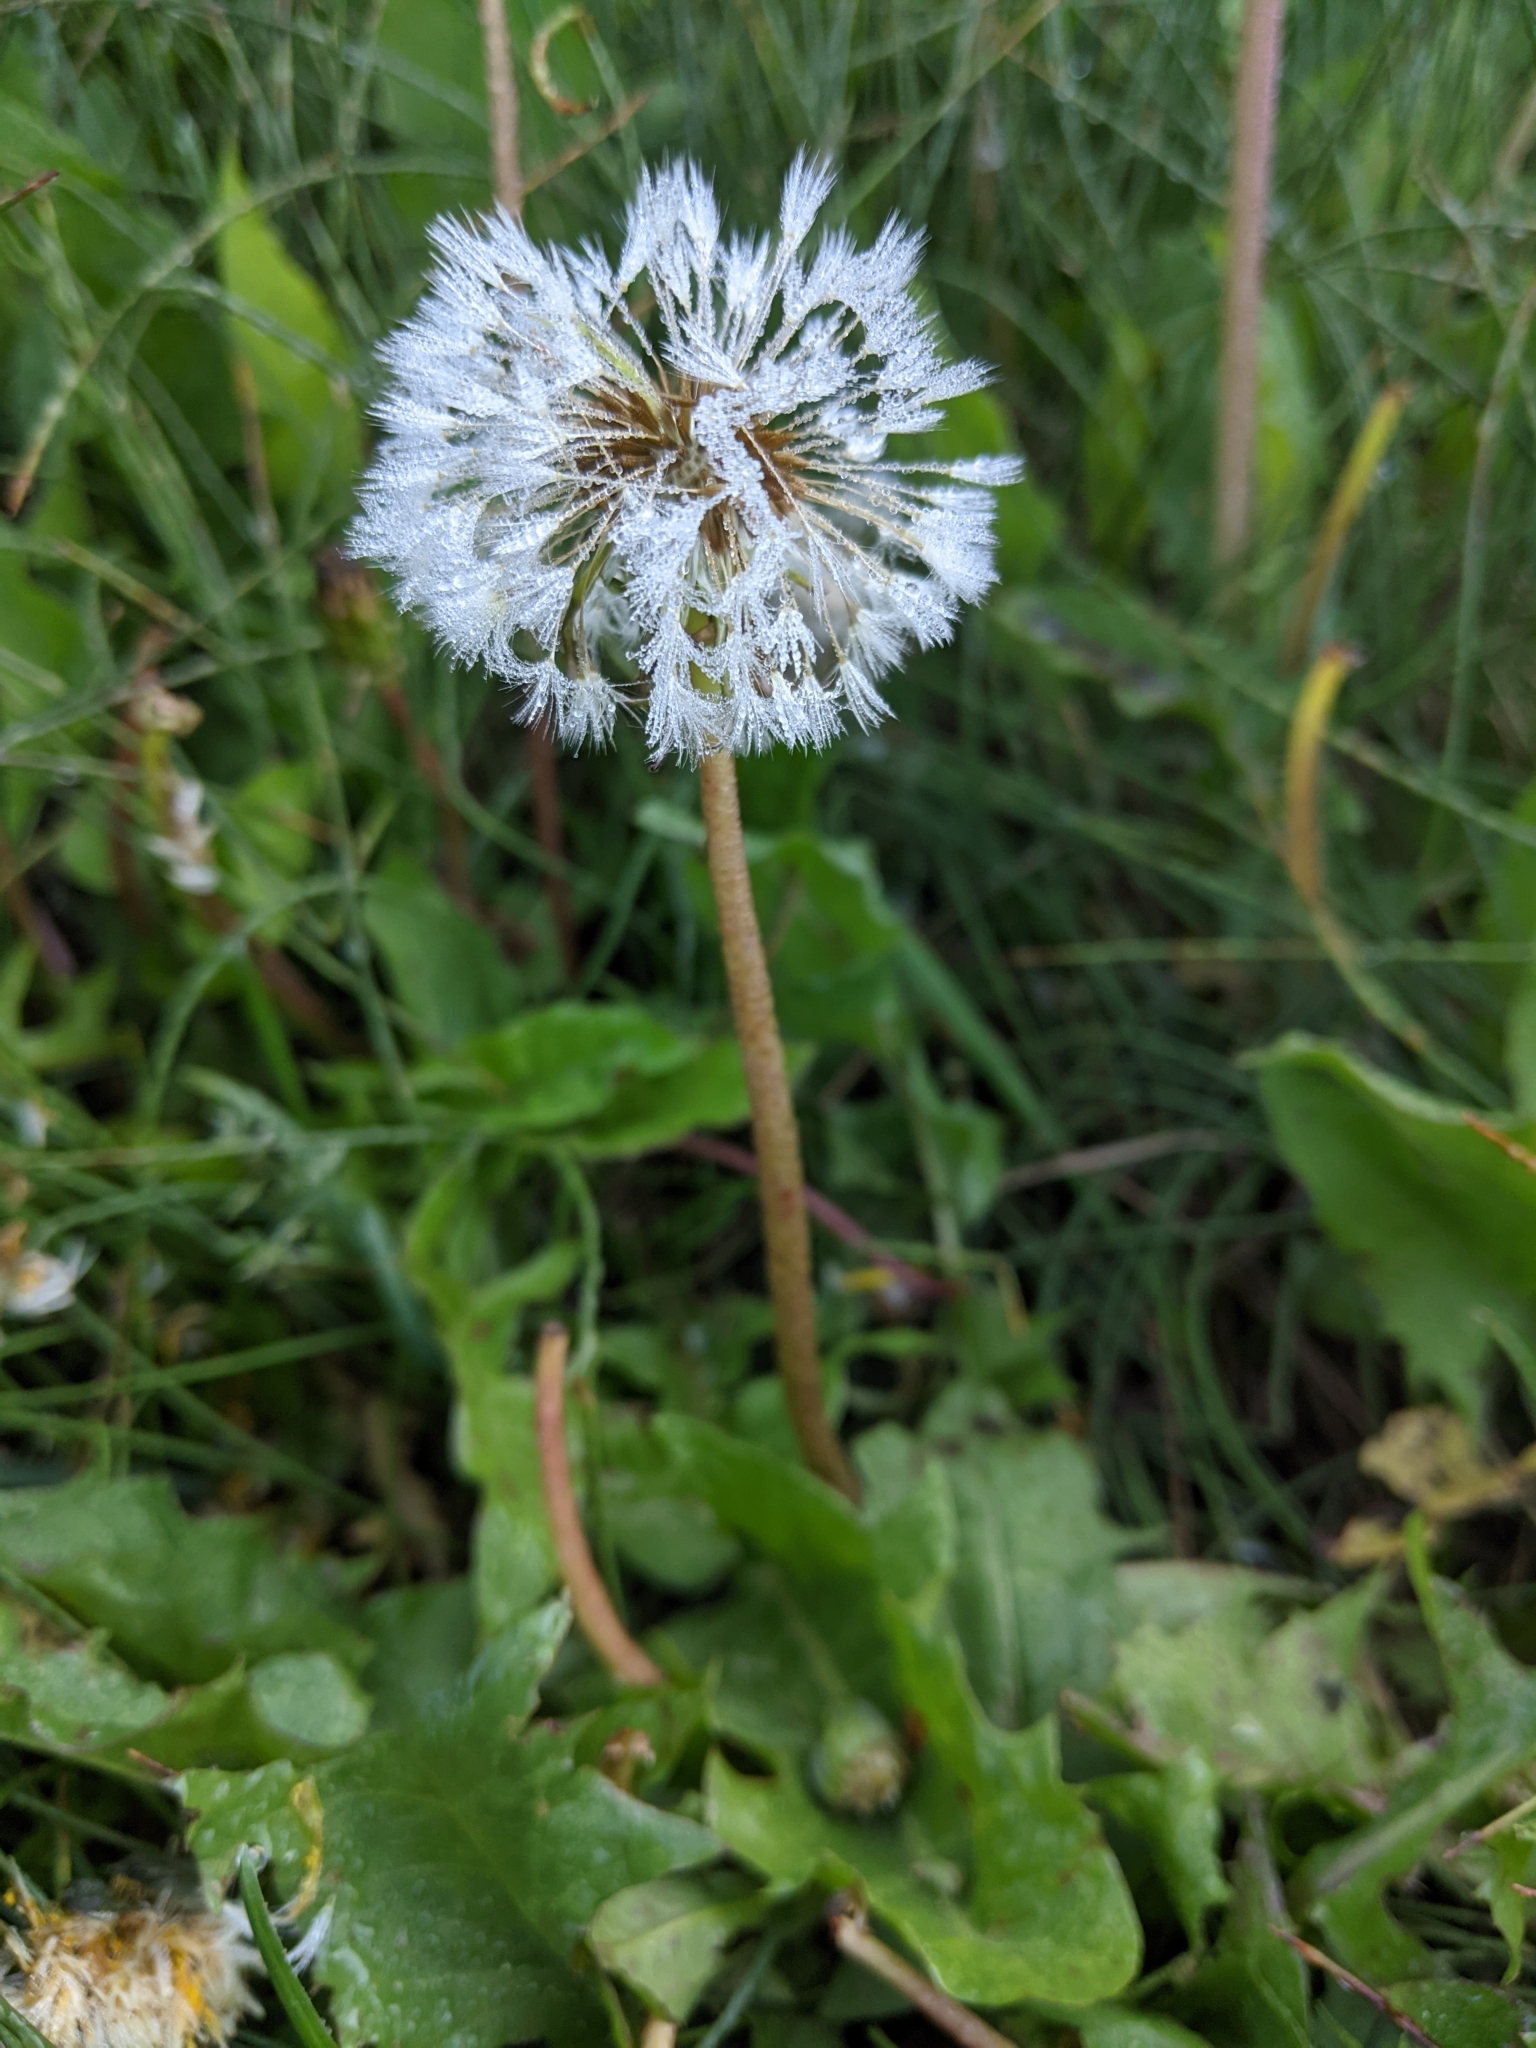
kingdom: Plantae
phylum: Tracheophyta
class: Magnoliopsida
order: Asterales
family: Asteraceae
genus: Taraxacum
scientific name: Taraxacum officinale
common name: Common dandelion
